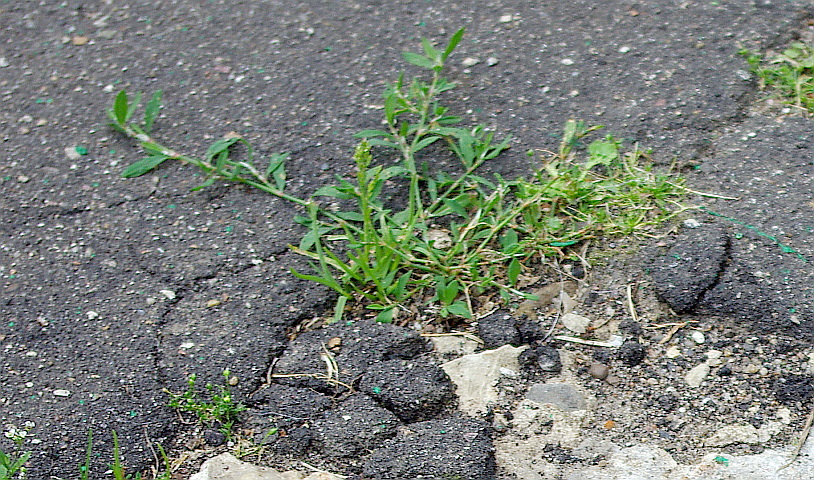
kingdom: Plantae
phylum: Tracheophyta
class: Magnoliopsida
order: Caryophyllales
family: Polygonaceae
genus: Polygonum
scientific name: Polygonum
